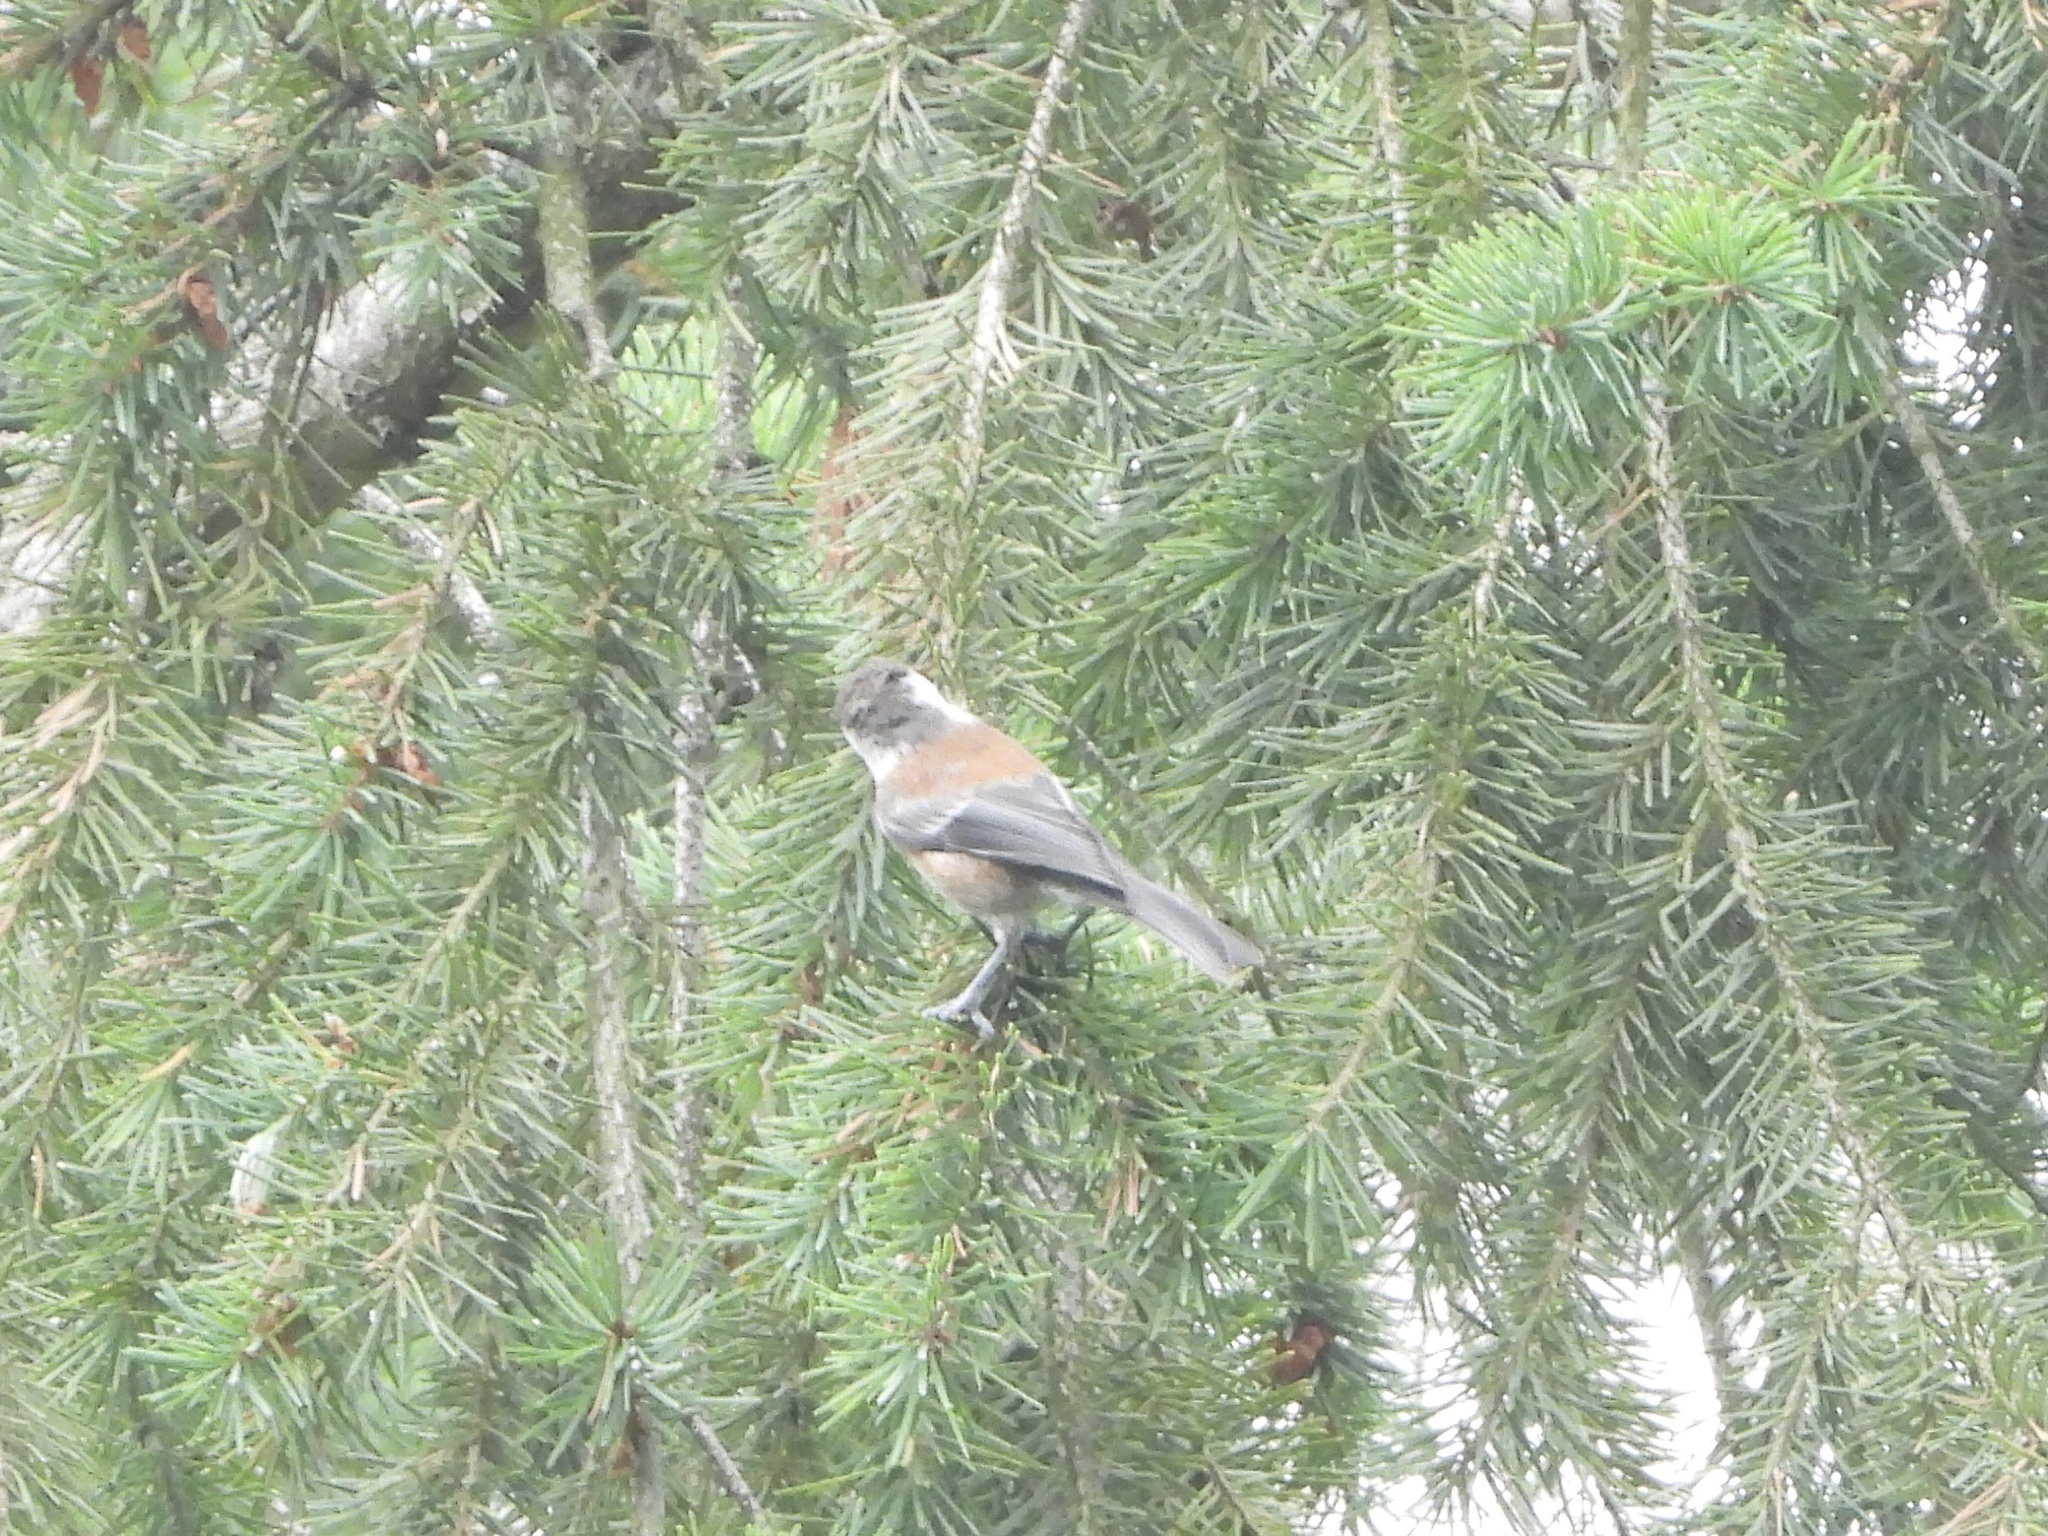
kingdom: Animalia
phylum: Chordata
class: Aves
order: Passeriformes
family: Paridae
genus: Poecile
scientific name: Poecile rufescens
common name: Chestnut-backed chickadee
